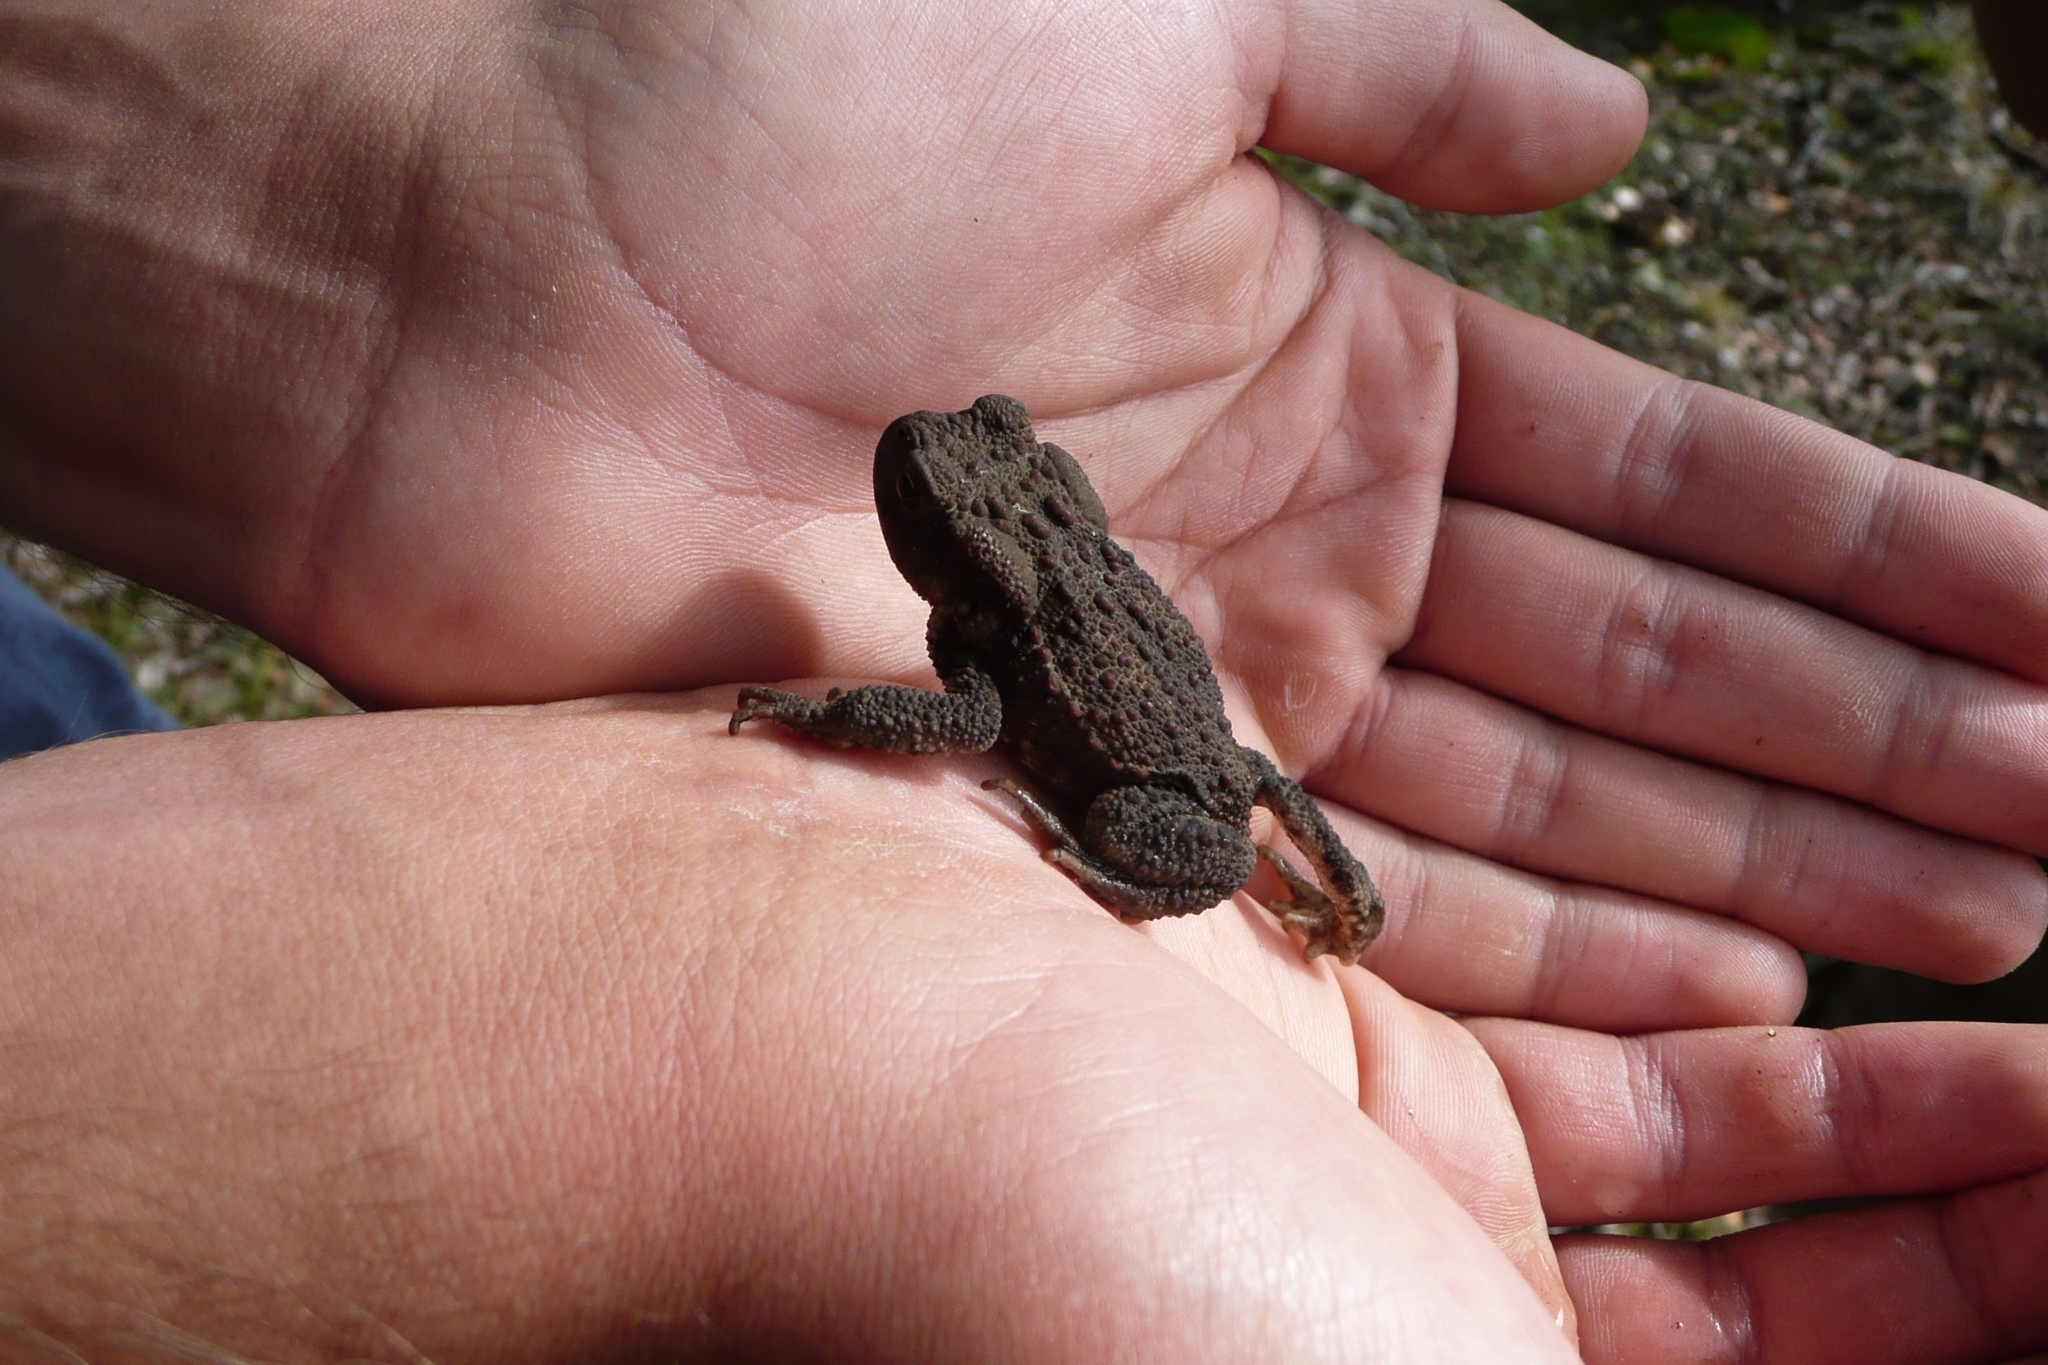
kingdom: Animalia
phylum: Chordata
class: Amphibia
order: Anura
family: Bufonidae
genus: Bufo
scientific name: Bufo bufo
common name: Common toad
